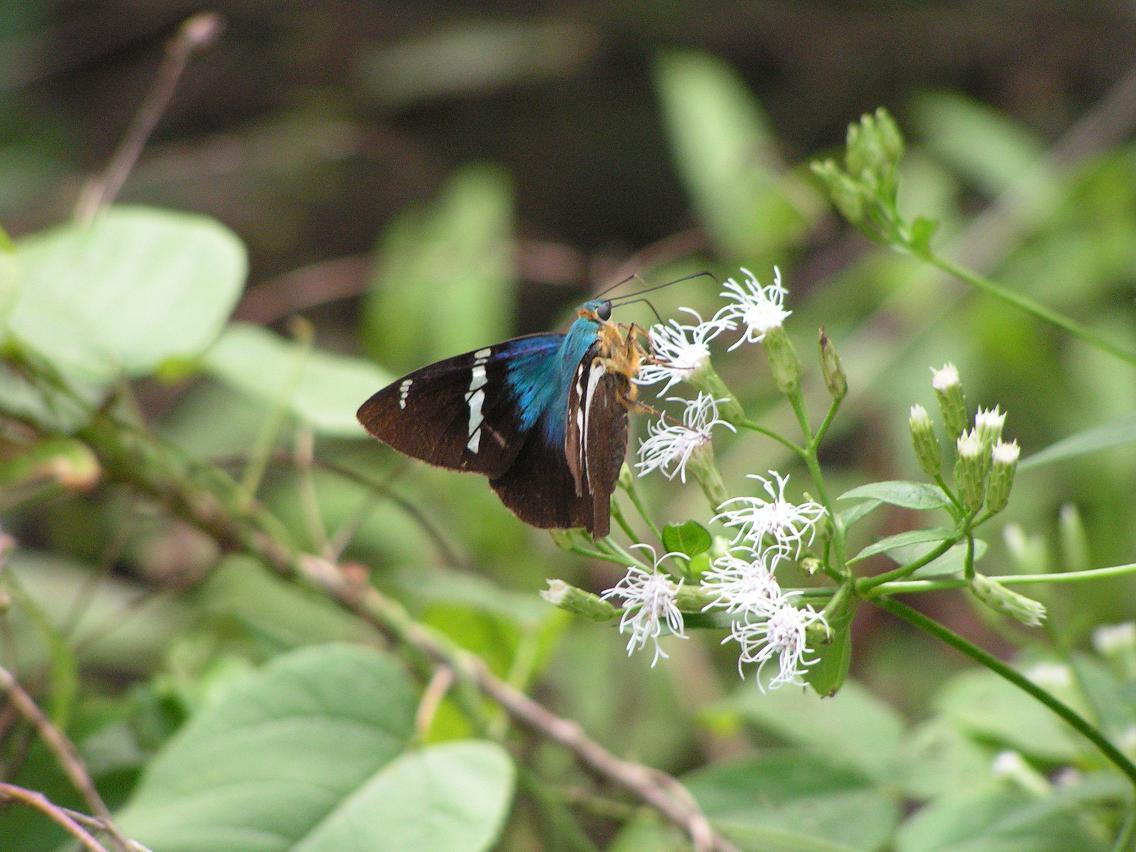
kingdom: Animalia
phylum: Arthropoda
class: Insecta
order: Lepidoptera
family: Hesperiidae
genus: Astraptes
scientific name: Astraptes fulgerator
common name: Two-barred flasher
